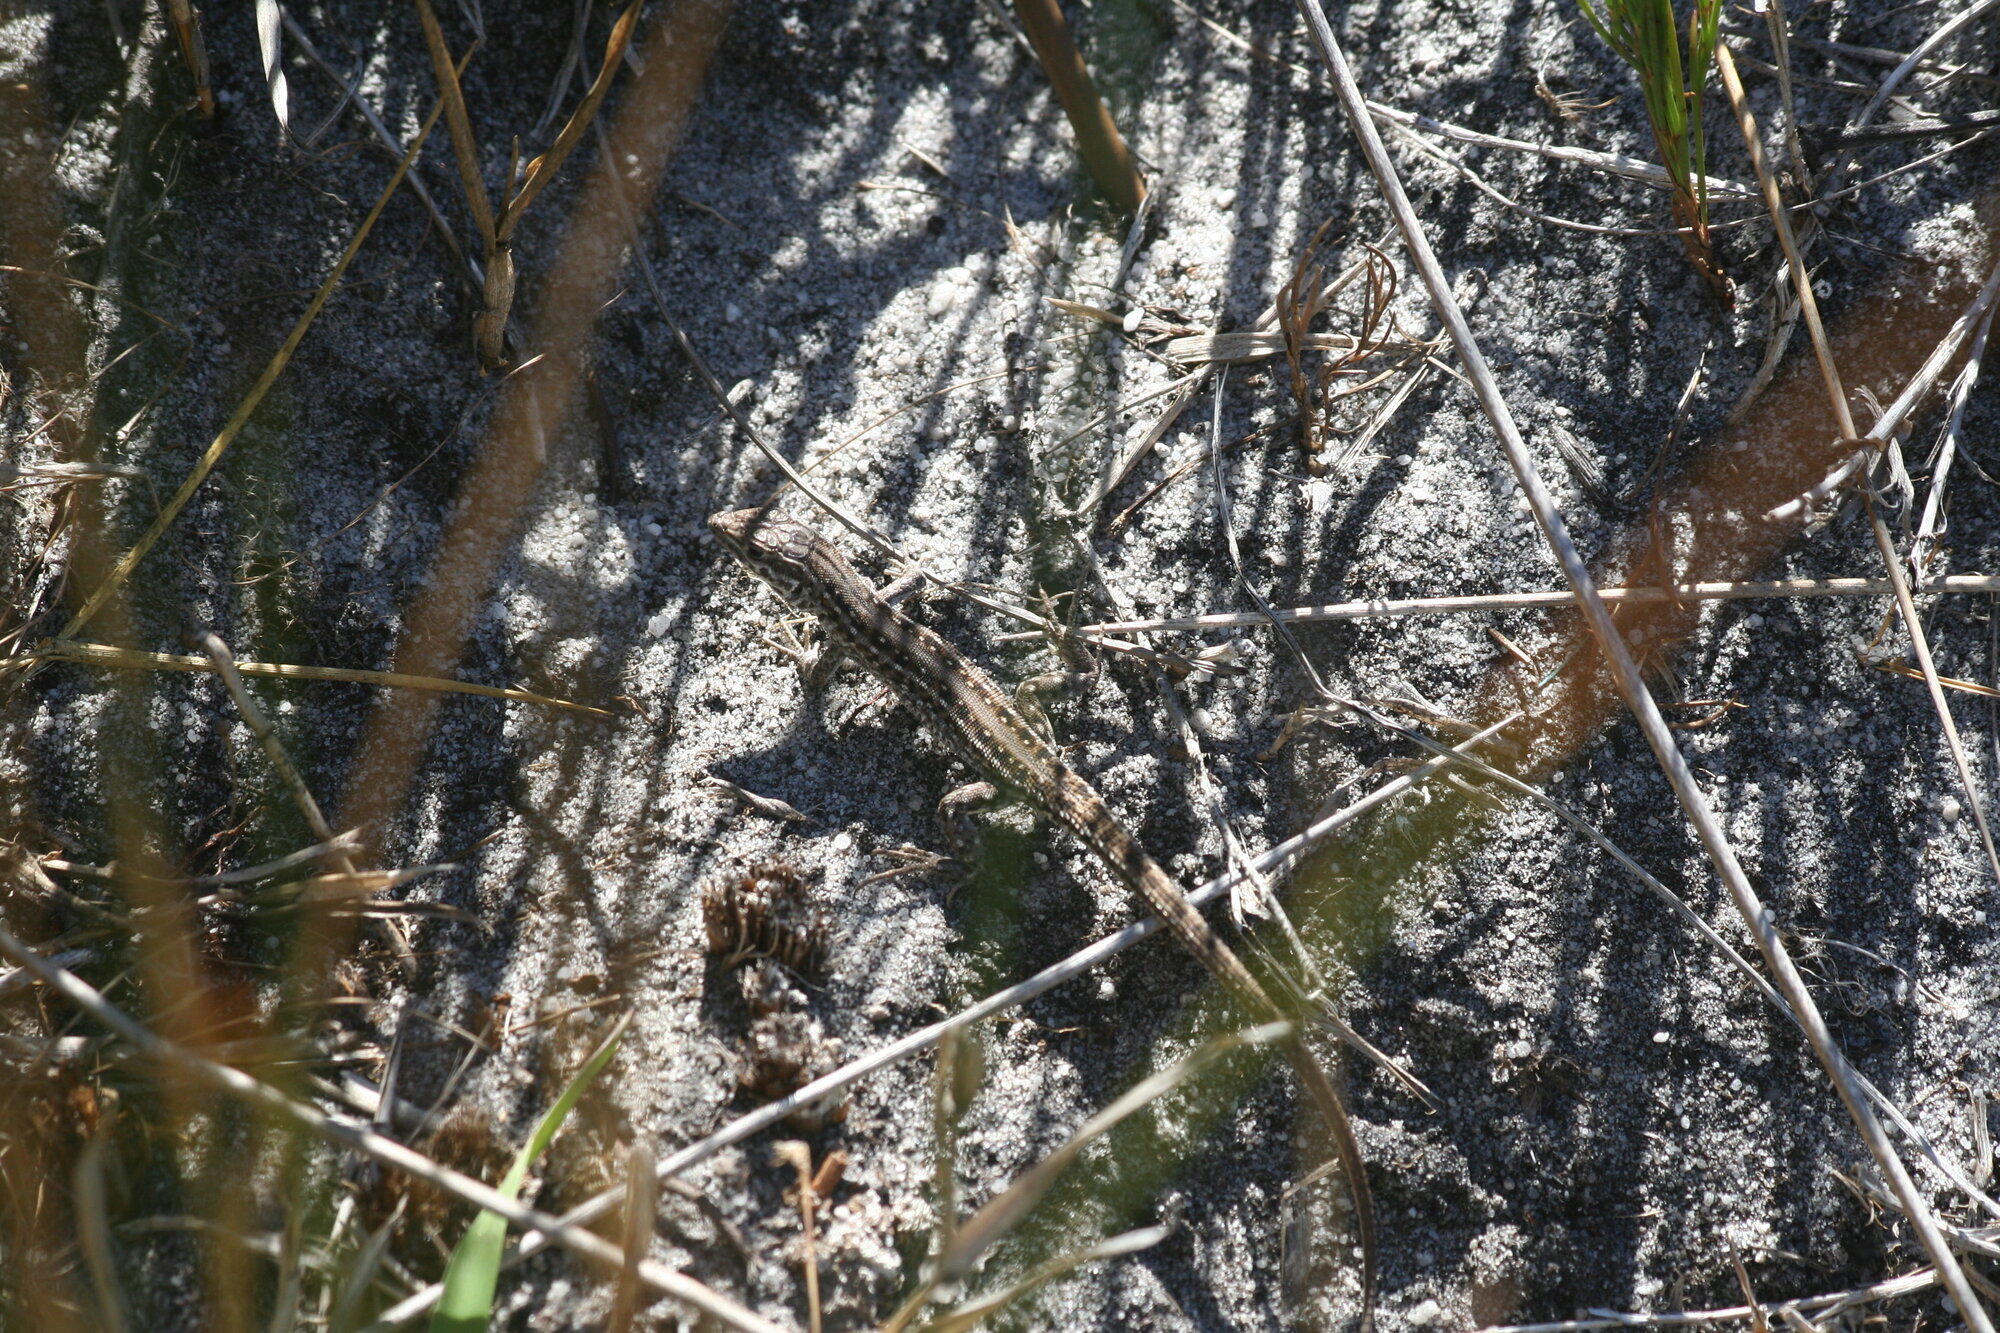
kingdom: Animalia
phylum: Chordata
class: Squamata
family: Lacertidae
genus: Meroles
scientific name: Meroles knoxii
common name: Knox's desert lizard
